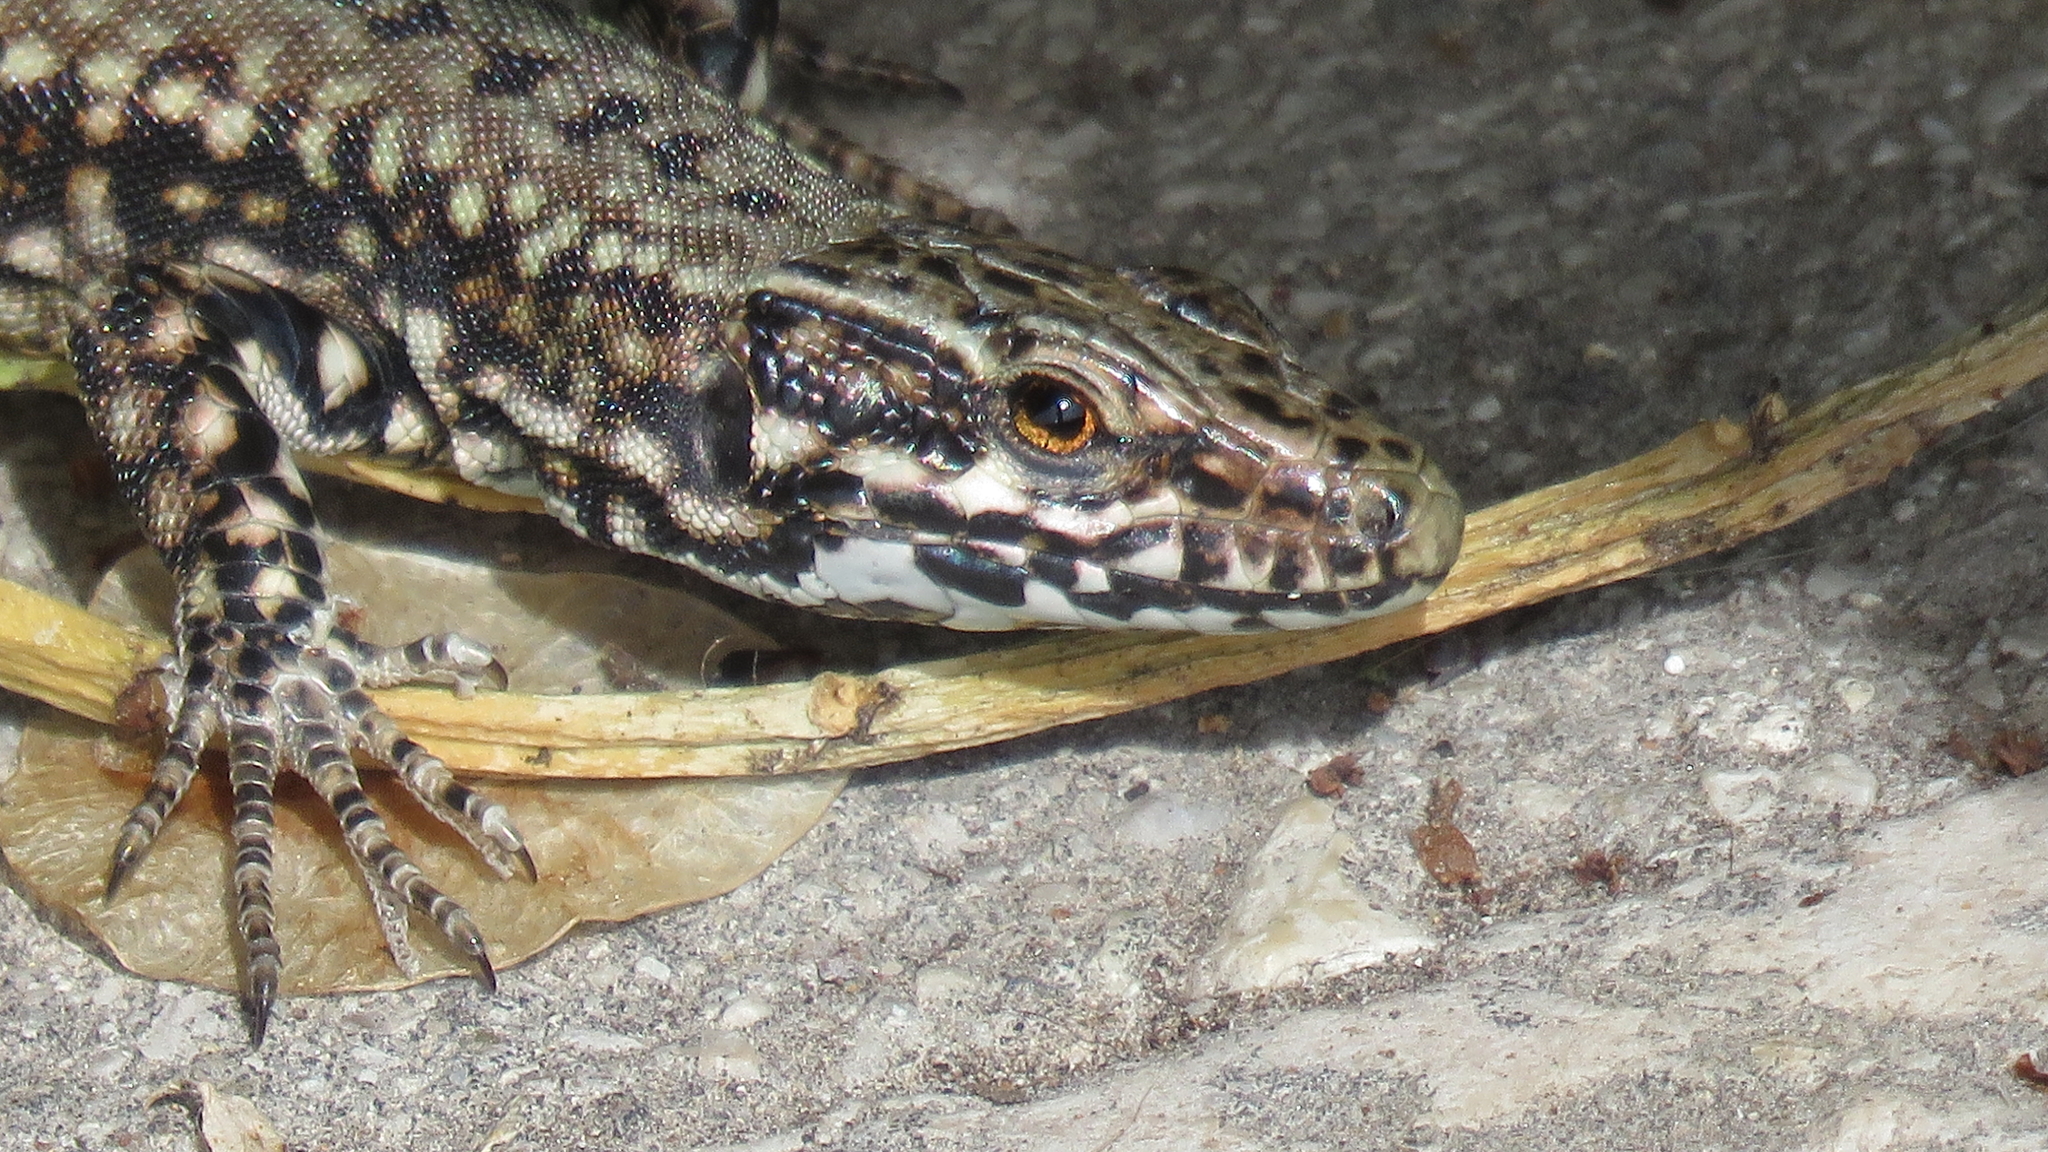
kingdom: Animalia
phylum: Chordata
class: Squamata
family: Lacertidae
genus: Podarcis
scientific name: Podarcis muralis
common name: Common wall lizard
